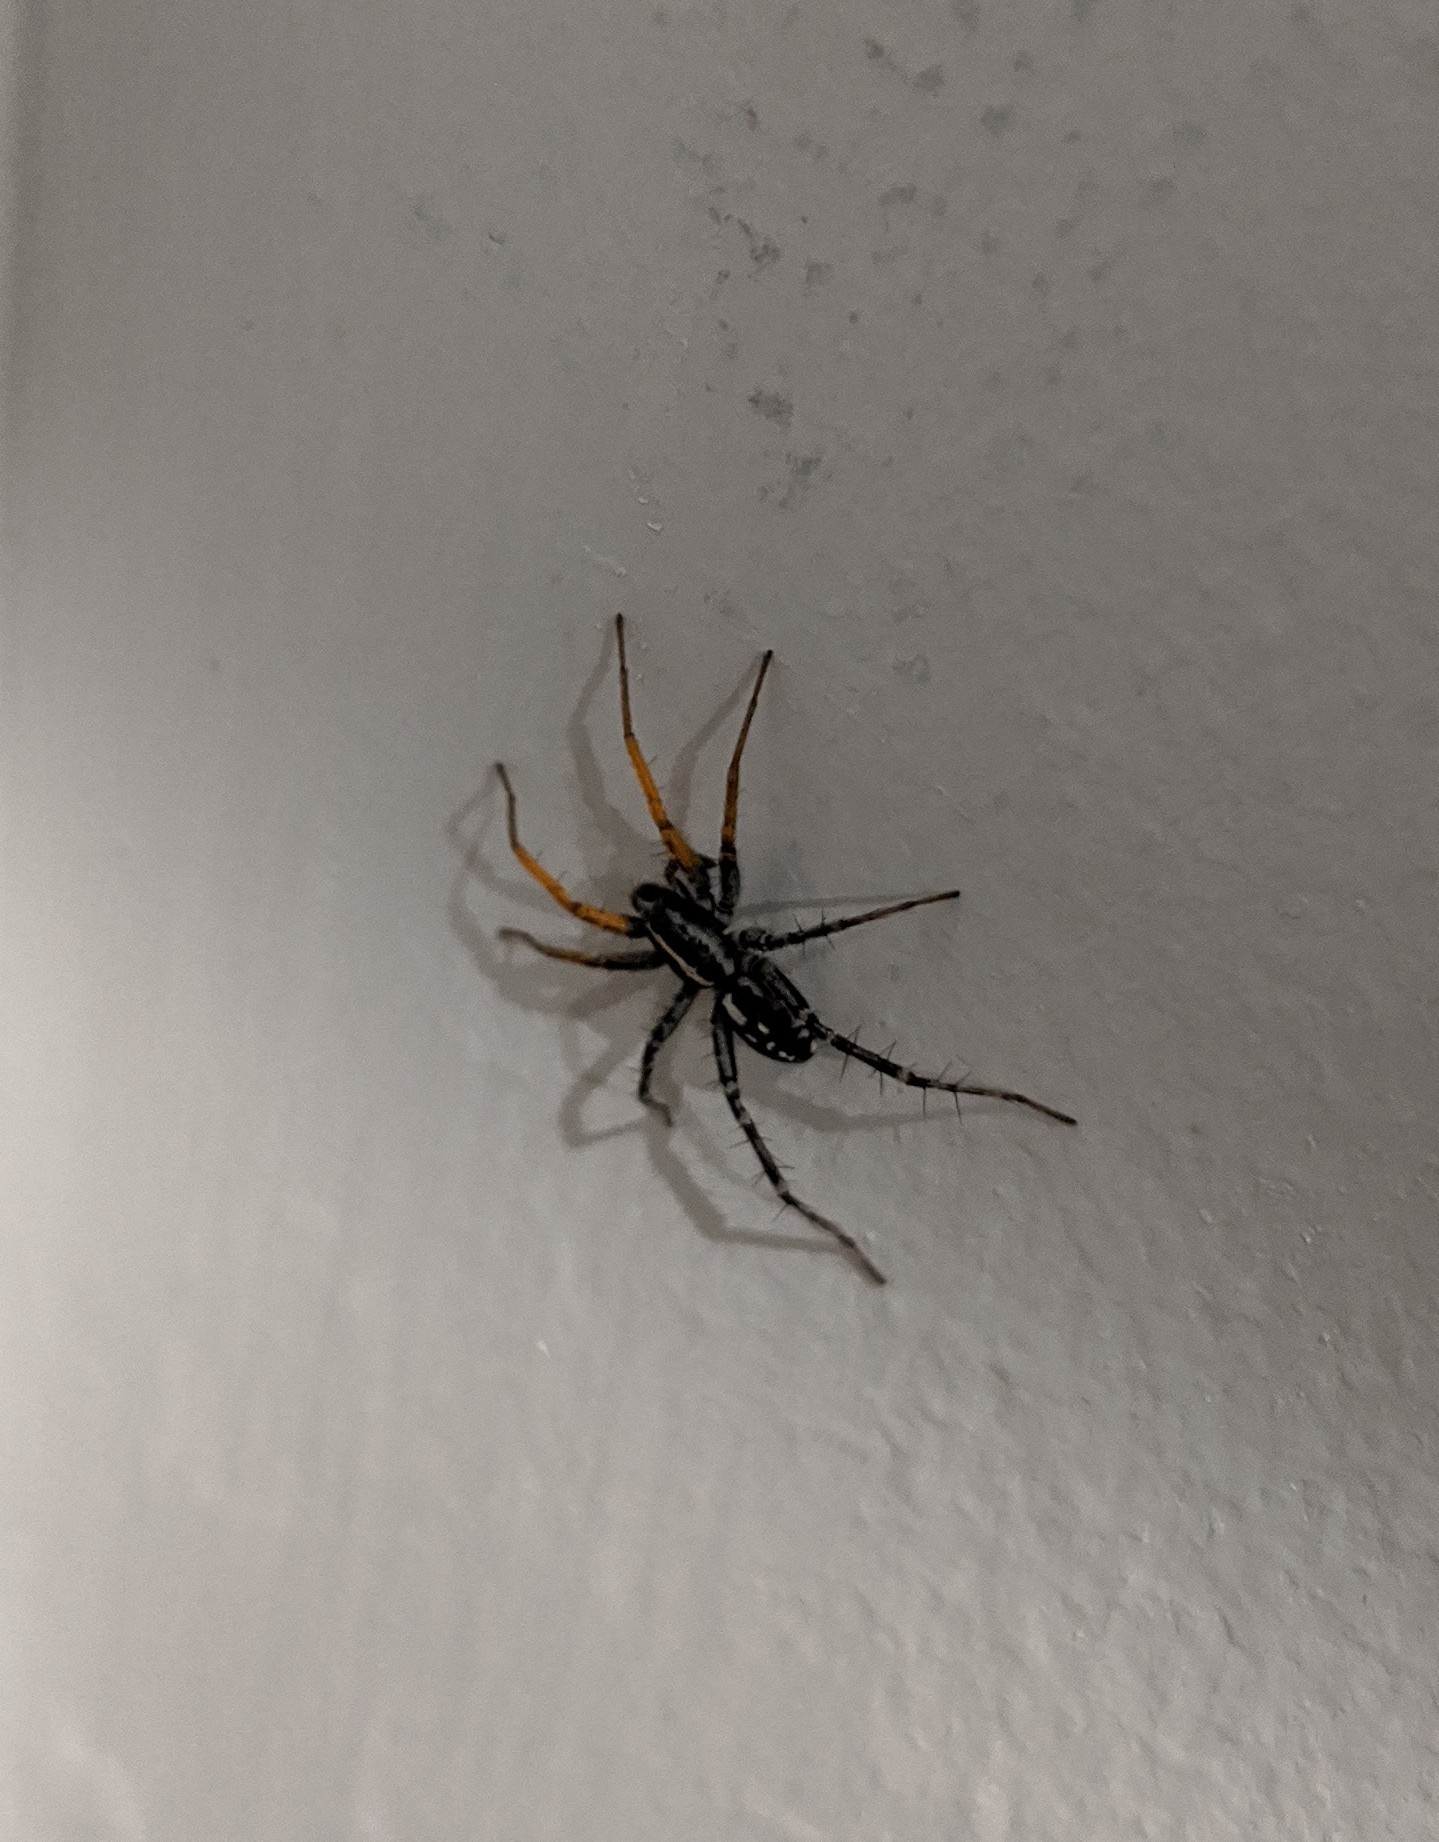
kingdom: Animalia
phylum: Arthropoda
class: Arachnida
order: Araneae
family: Corinnidae
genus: Nyssus
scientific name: Nyssus coloripes
